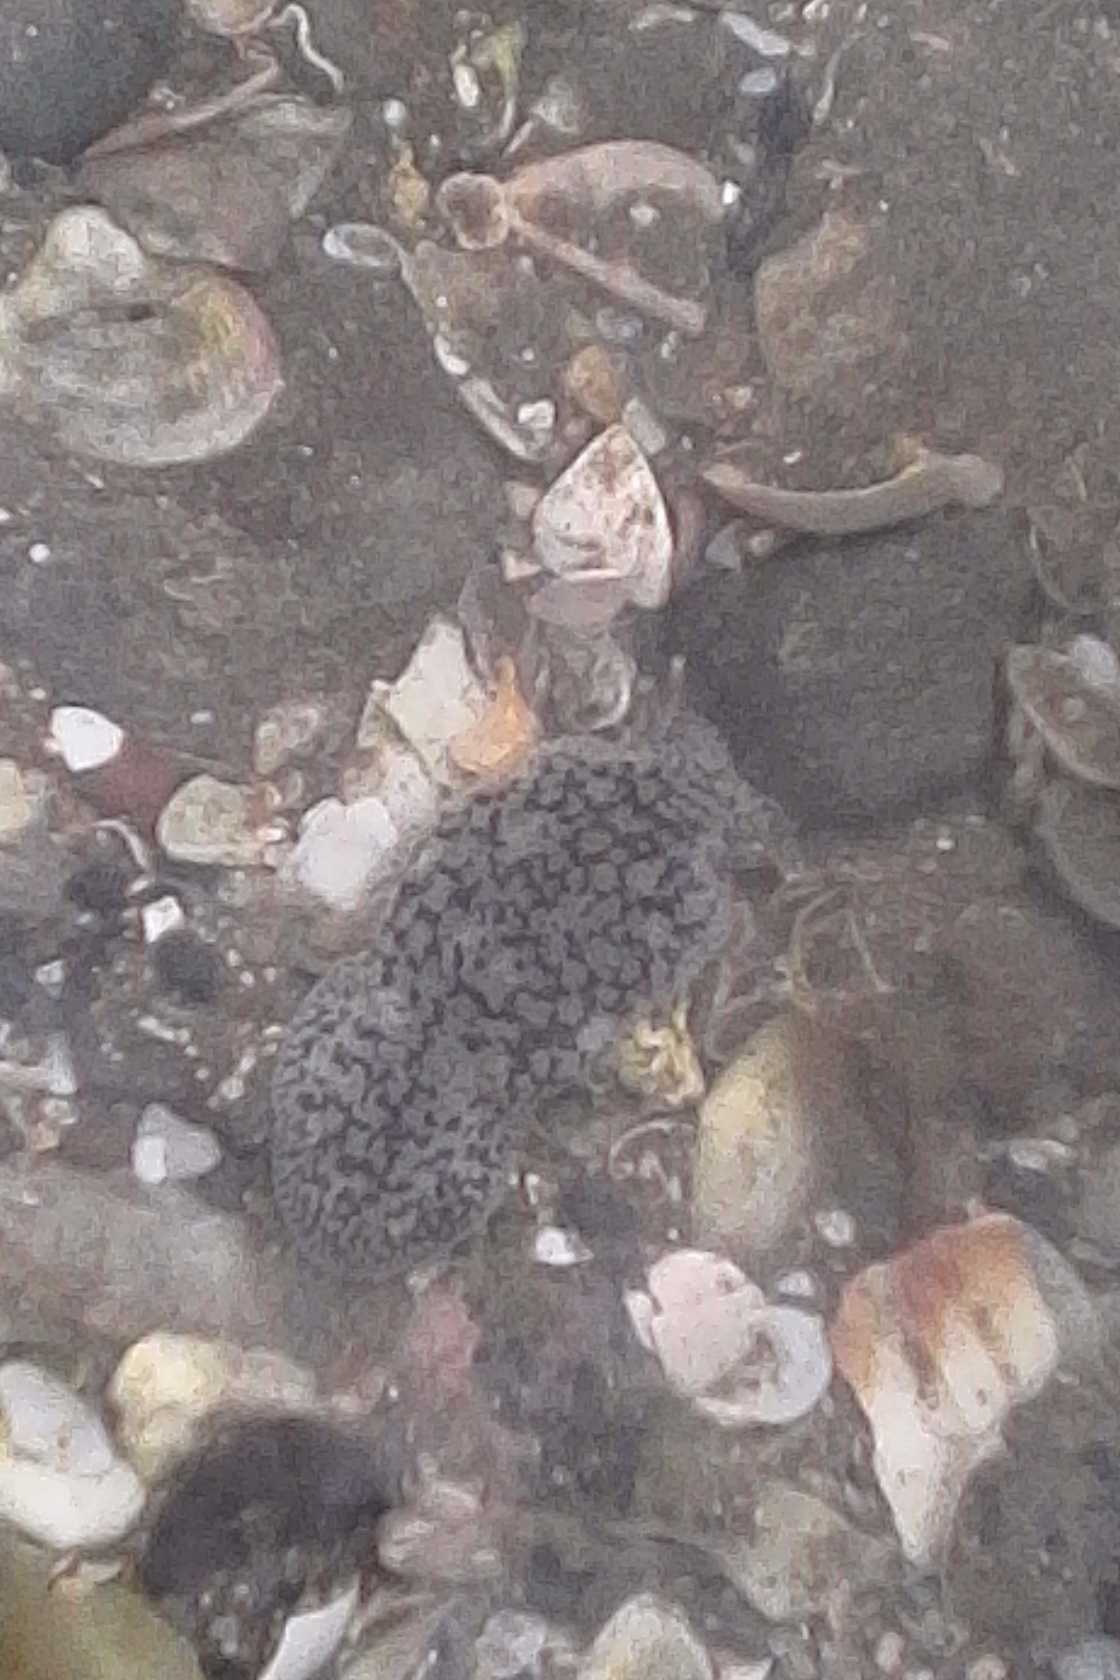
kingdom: Animalia
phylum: Mollusca
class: Gastropoda
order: Pleurobranchida
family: Pleurobranchaeidae
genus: Pleurobranchaea
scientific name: Pleurobranchaea maculata
